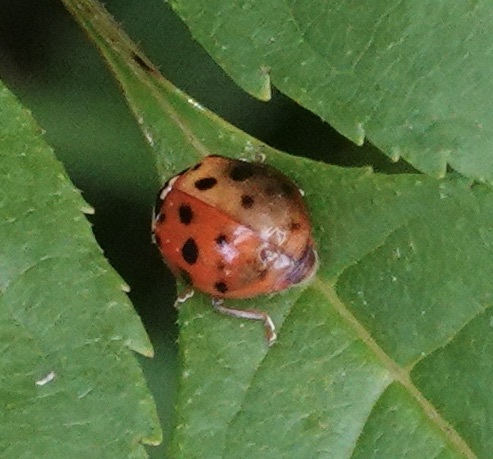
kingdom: Animalia
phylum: Arthropoda
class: Insecta
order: Coleoptera
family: Coccinellidae
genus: Harmonia
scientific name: Harmonia axyridis
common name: Harlequin ladybird
